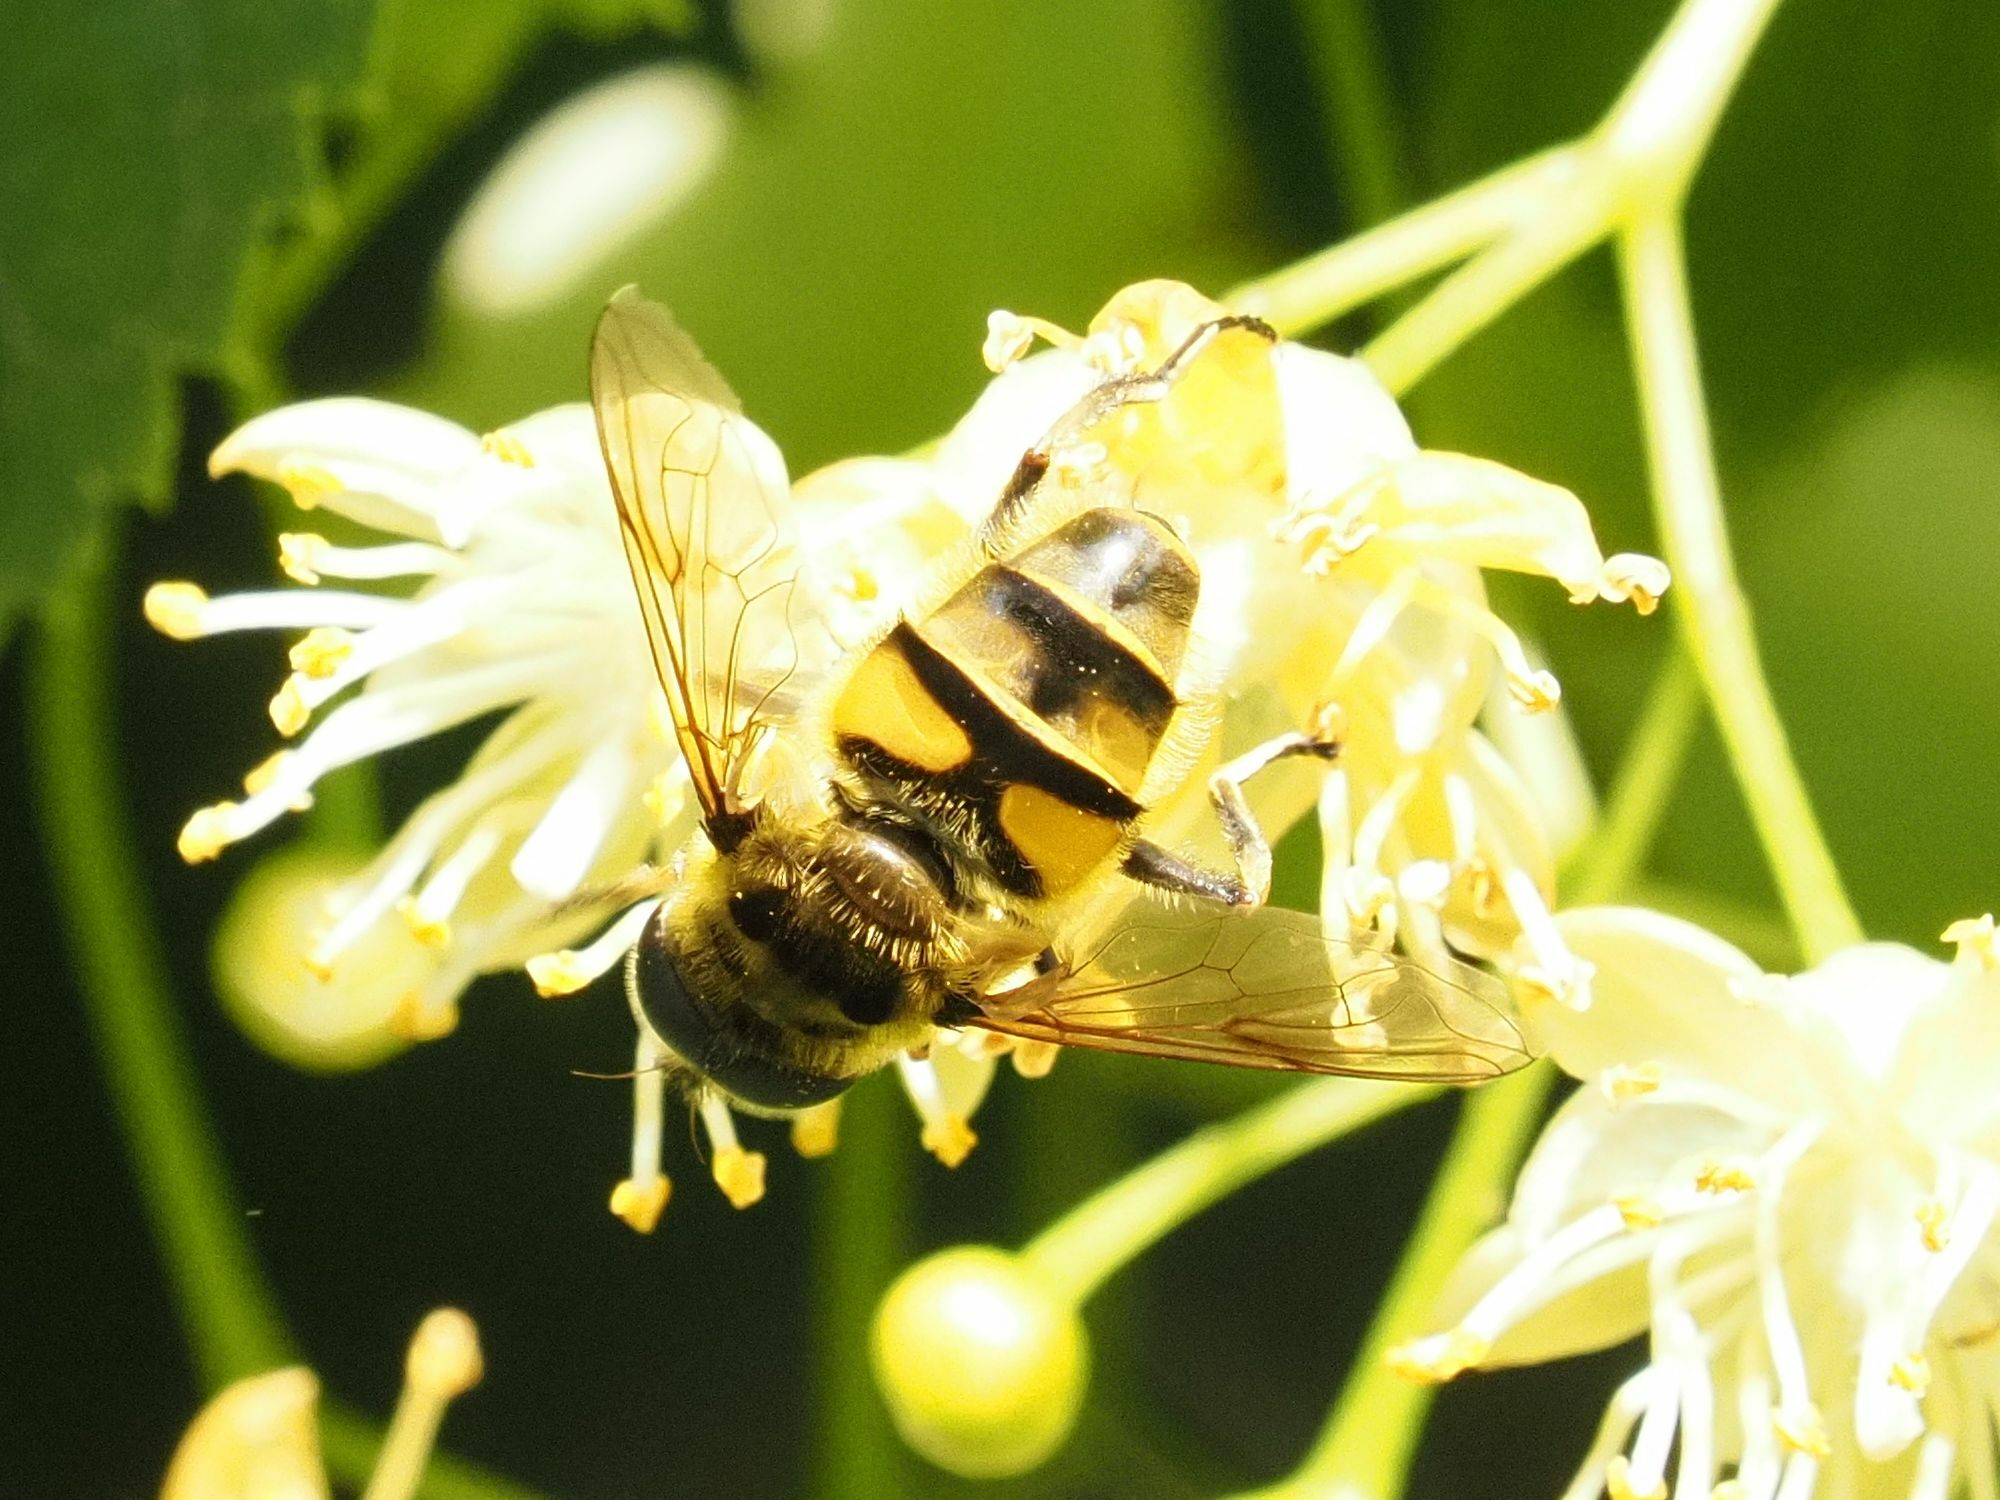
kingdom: Animalia
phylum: Arthropoda
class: Insecta
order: Diptera
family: Syrphidae
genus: Myathropa
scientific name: Myathropa florea
